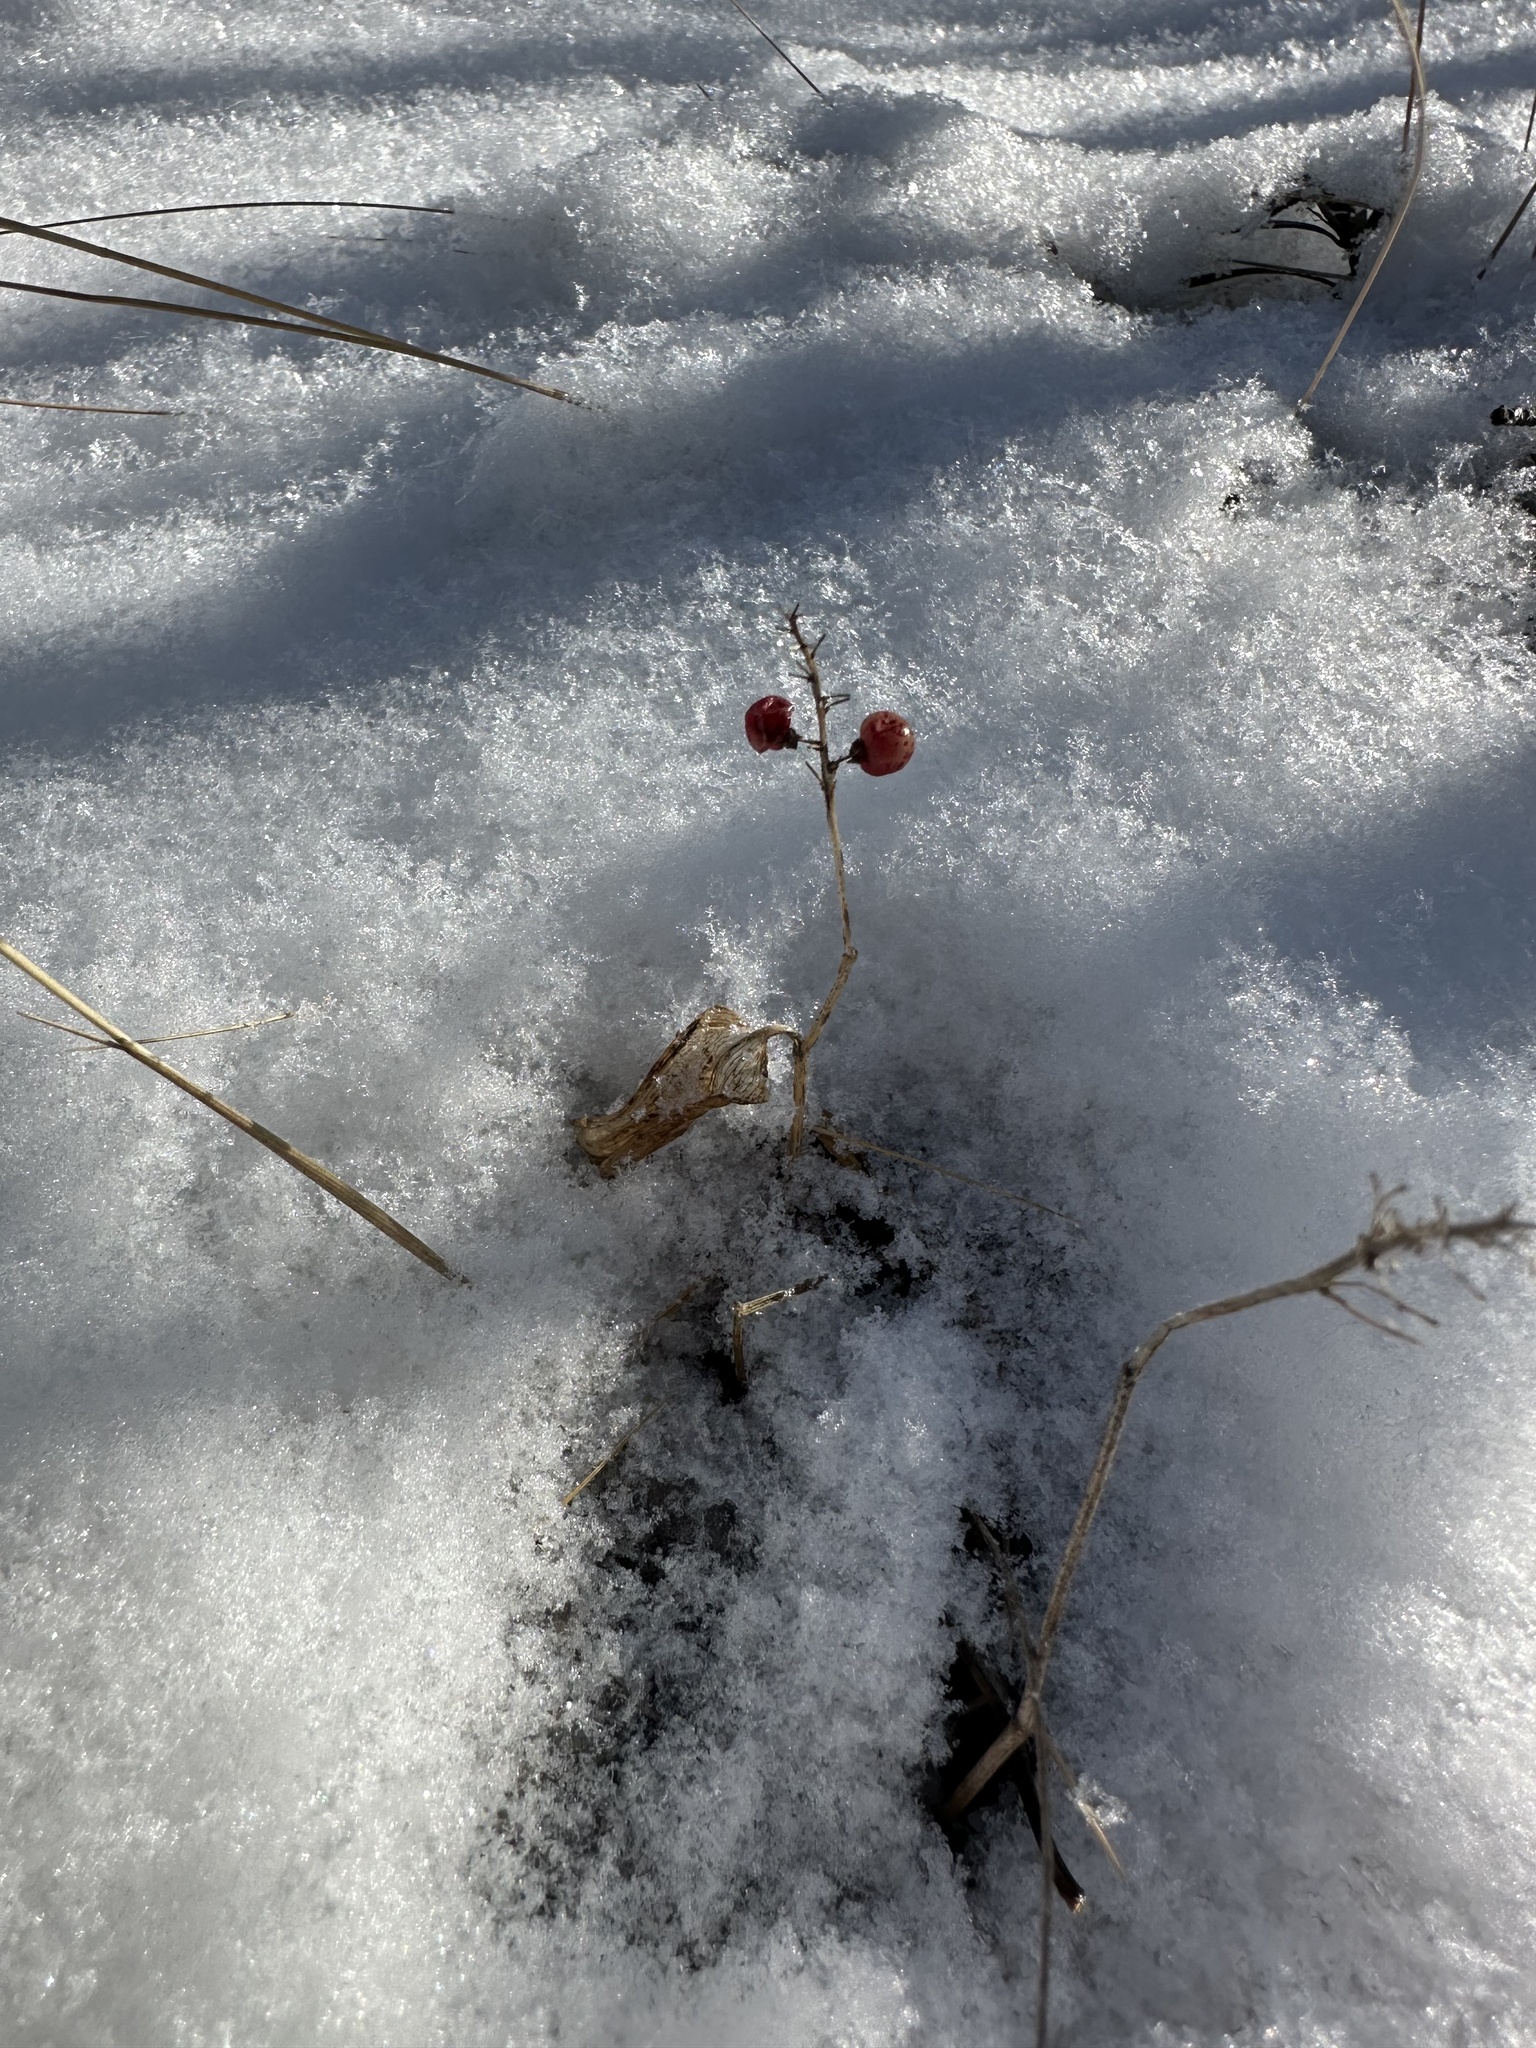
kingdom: Plantae
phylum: Tracheophyta
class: Liliopsida
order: Asparagales
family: Asparagaceae
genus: Maianthemum
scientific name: Maianthemum canadense
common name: False lily-of-the-valley
